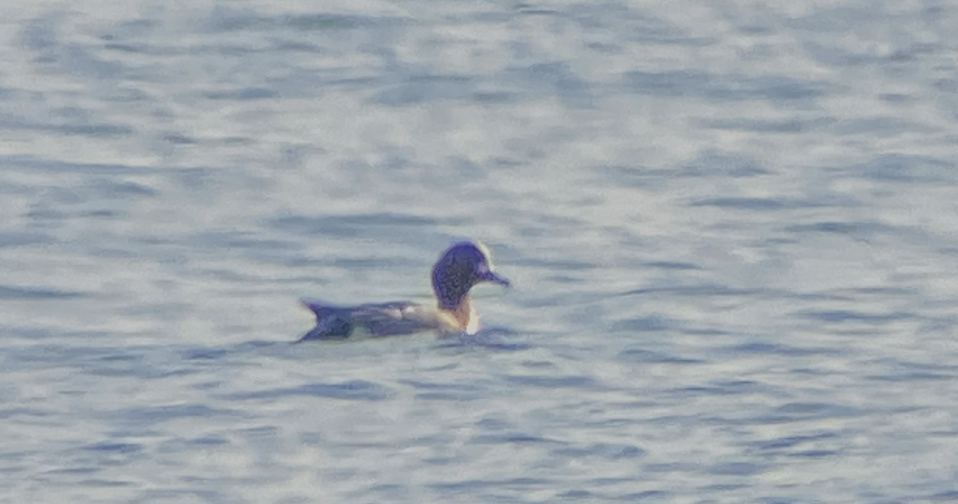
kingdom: Animalia
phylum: Chordata
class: Aves
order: Anseriformes
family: Anatidae
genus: Mareca
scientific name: Mareca penelope
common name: Eurasian wigeon
